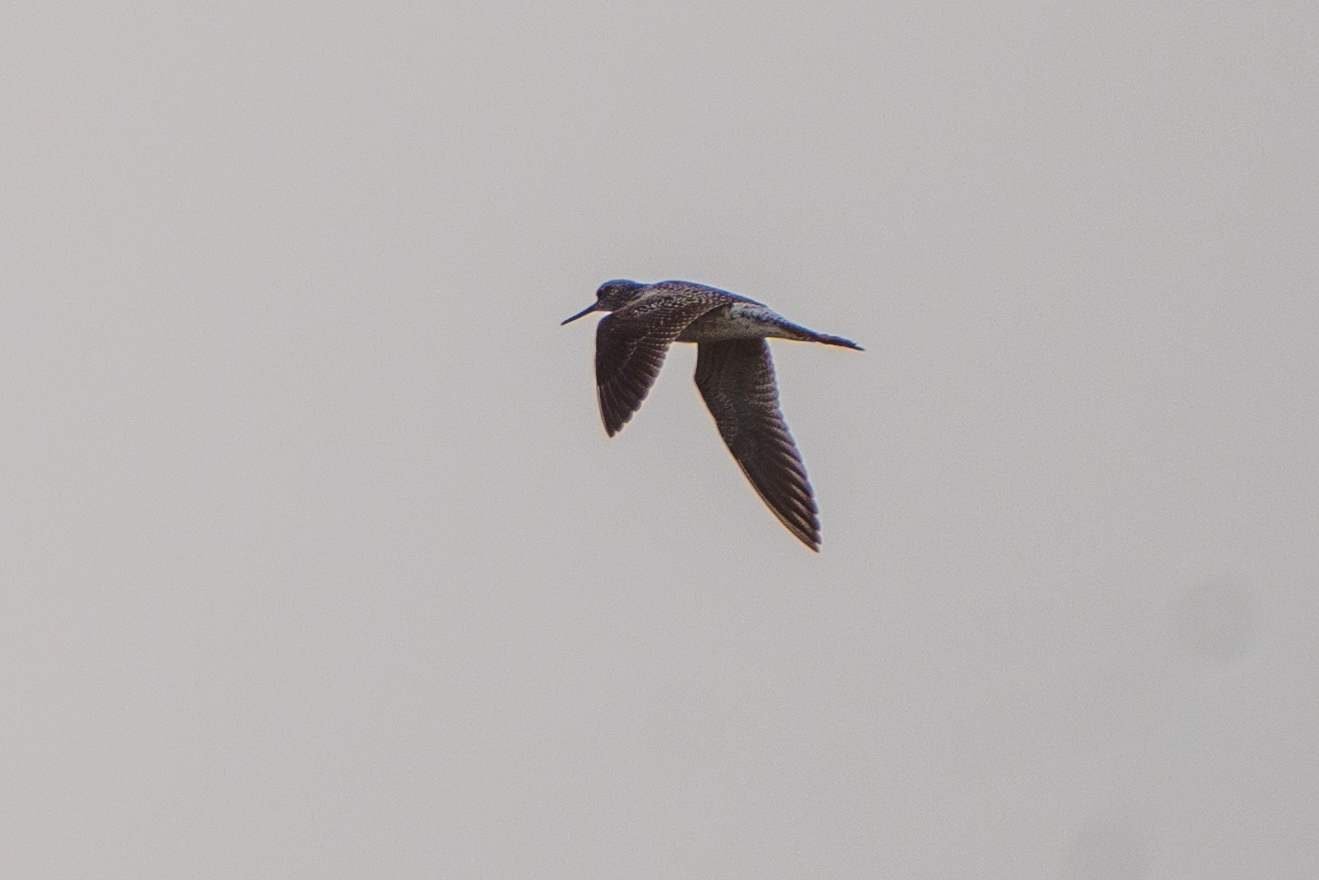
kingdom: Animalia
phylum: Chordata
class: Aves
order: Charadriiformes
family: Scolopacidae
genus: Tringa
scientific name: Tringa melanoleuca
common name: Greater yellowlegs
